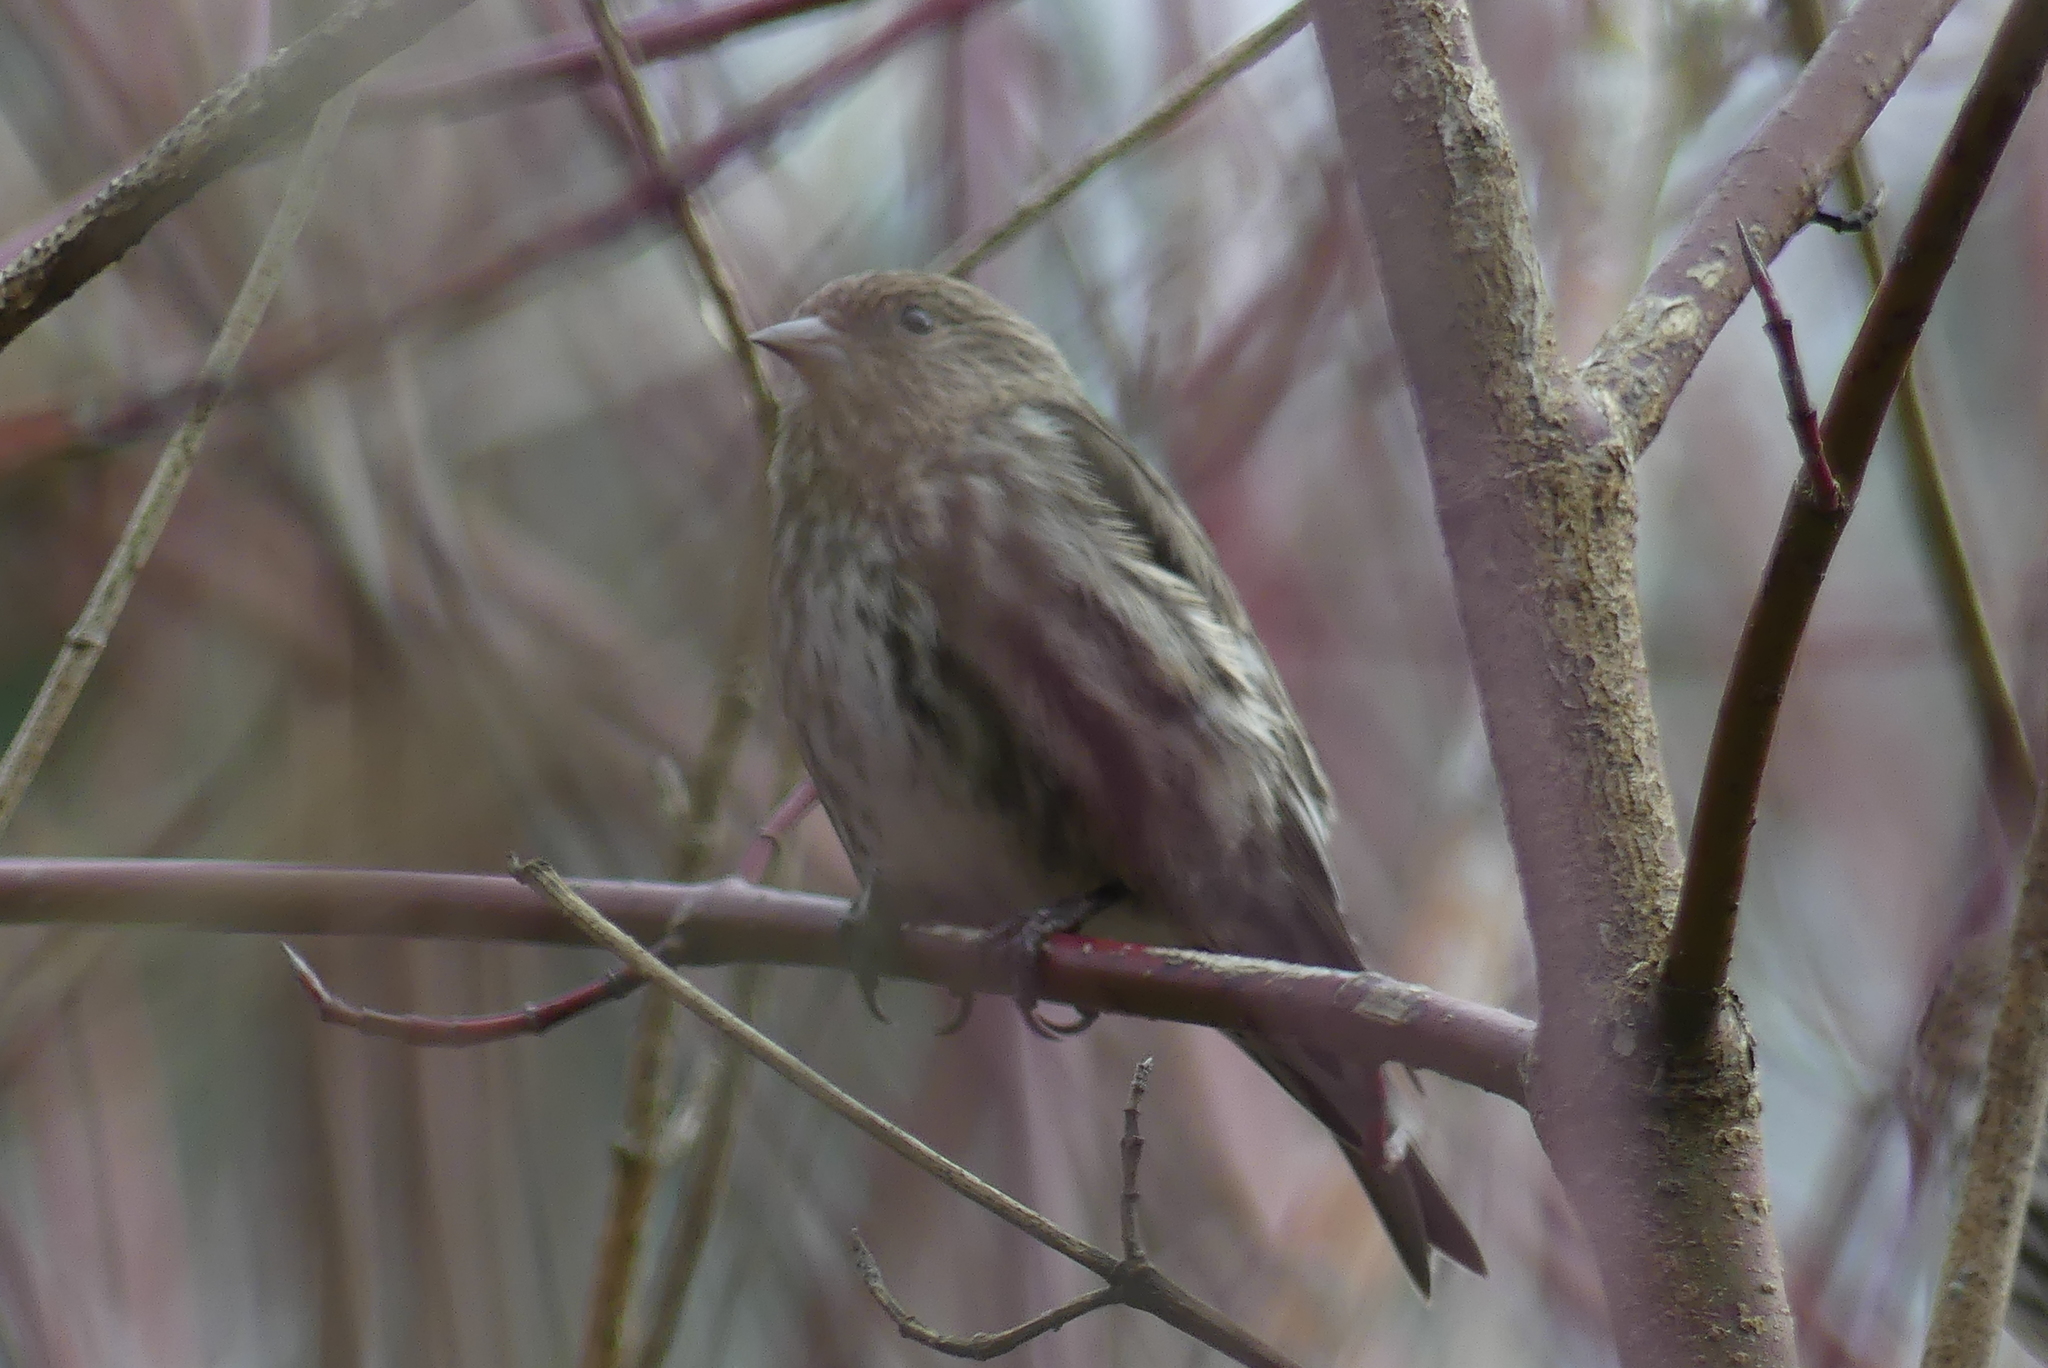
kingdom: Animalia
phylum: Chordata
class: Aves
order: Passeriformes
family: Fringillidae
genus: Spinus
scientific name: Spinus pinus
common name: Pine siskin
